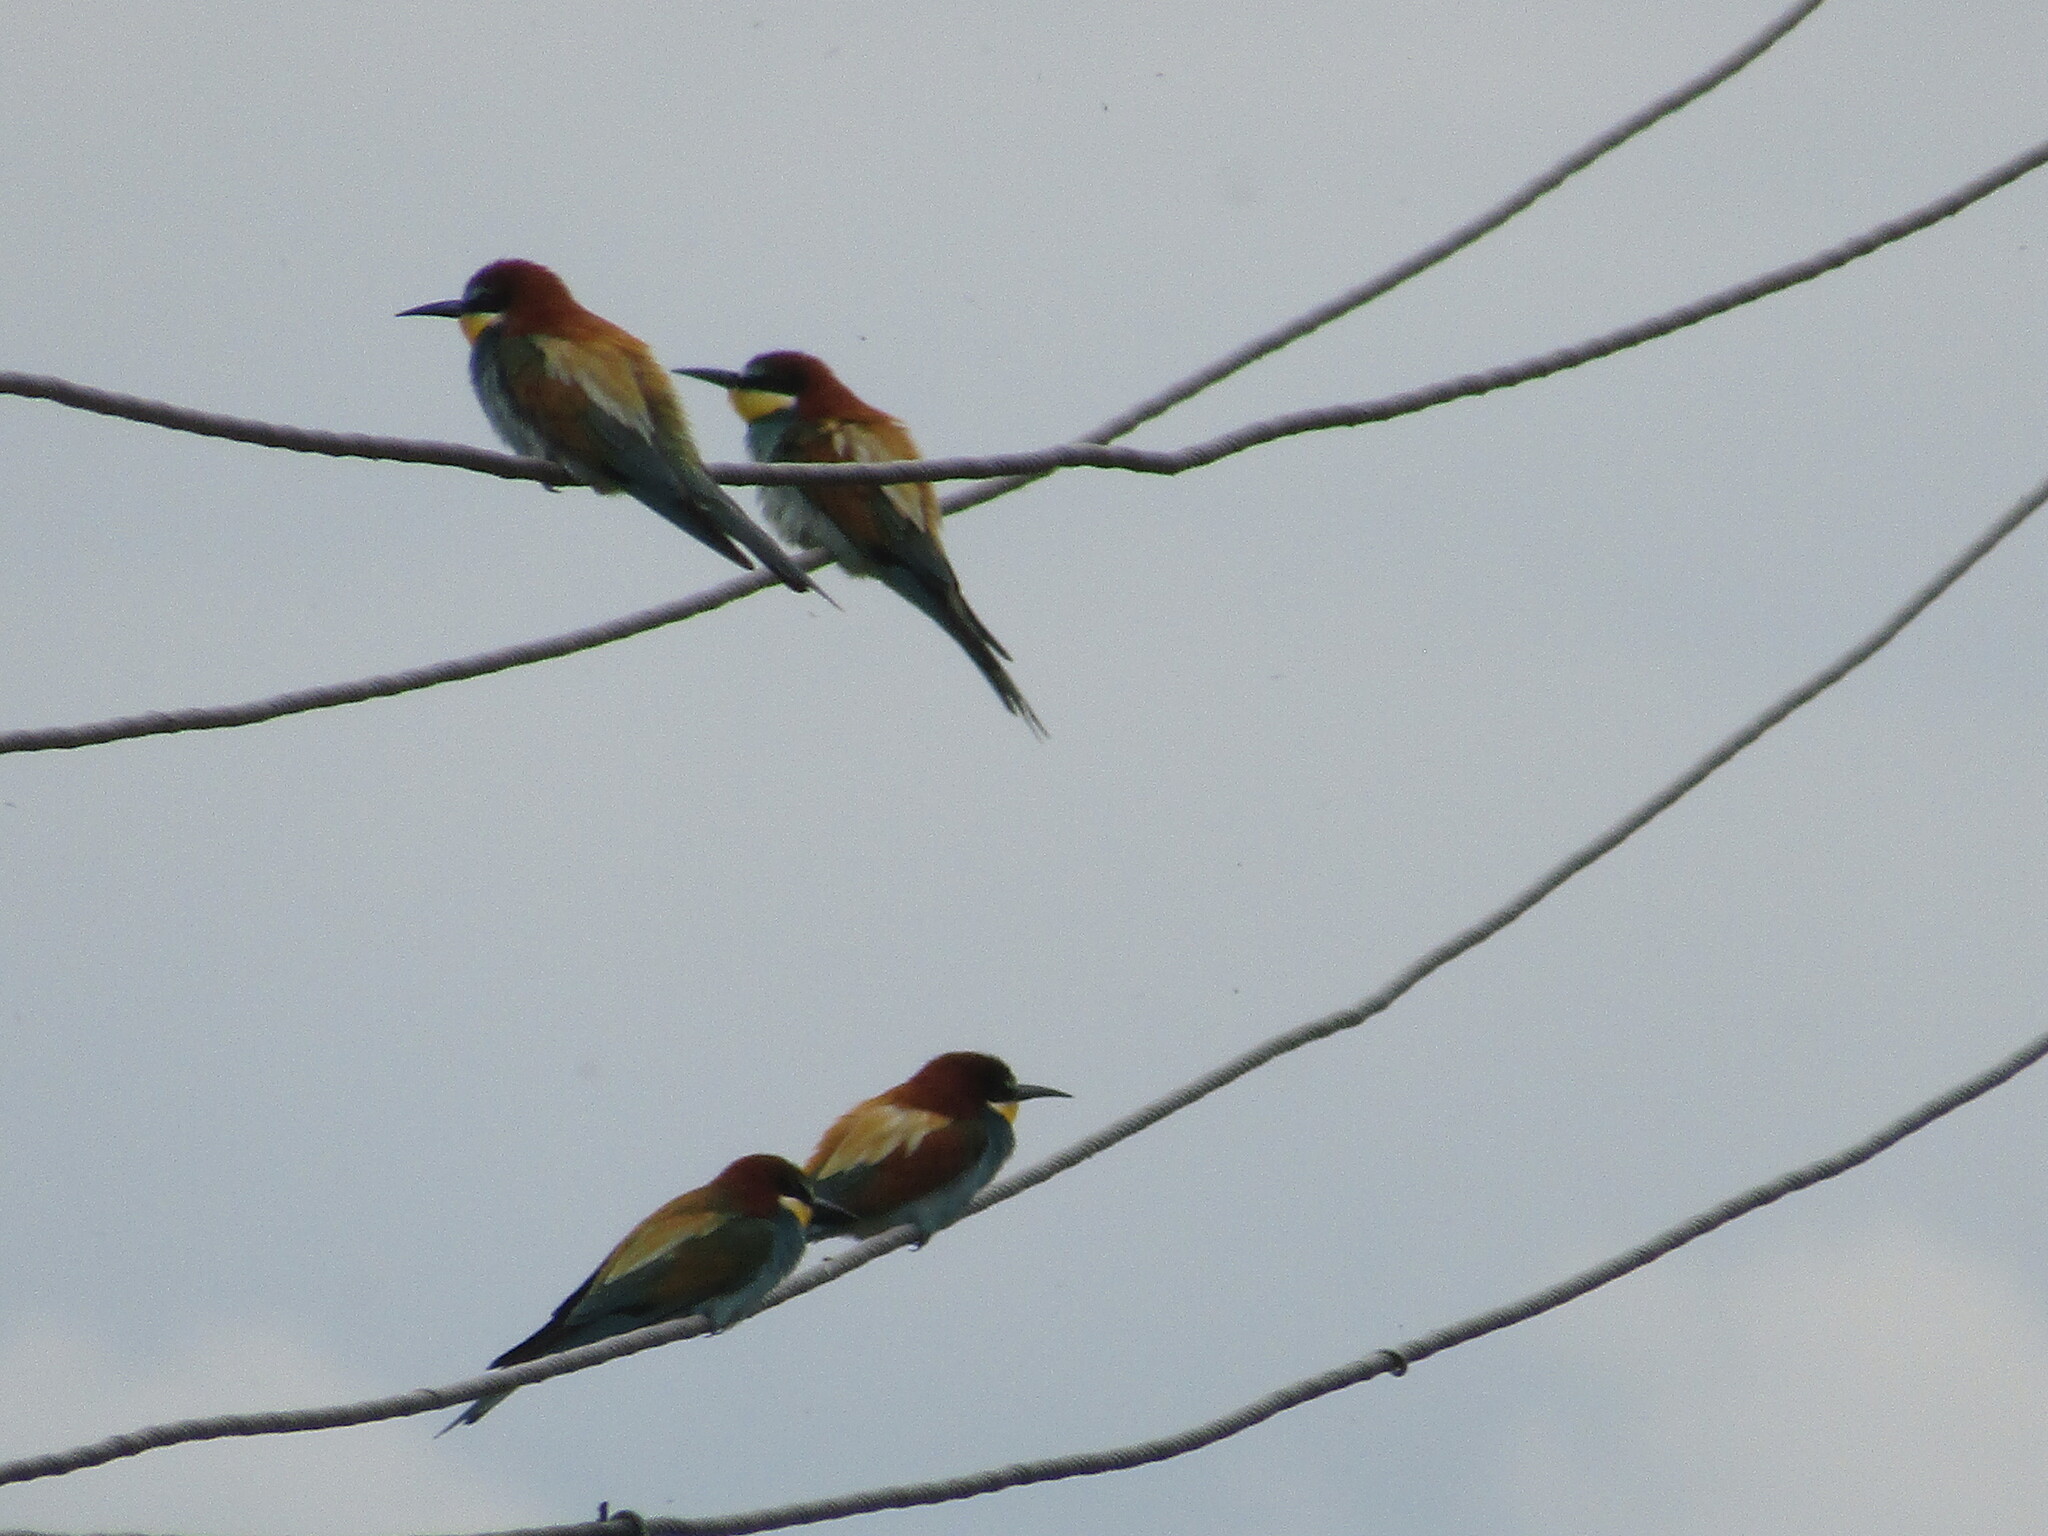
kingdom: Animalia
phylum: Chordata
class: Aves
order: Coraciiformes
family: Meropidae
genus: Merops
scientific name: Merops apiaster
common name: European bee-eater
